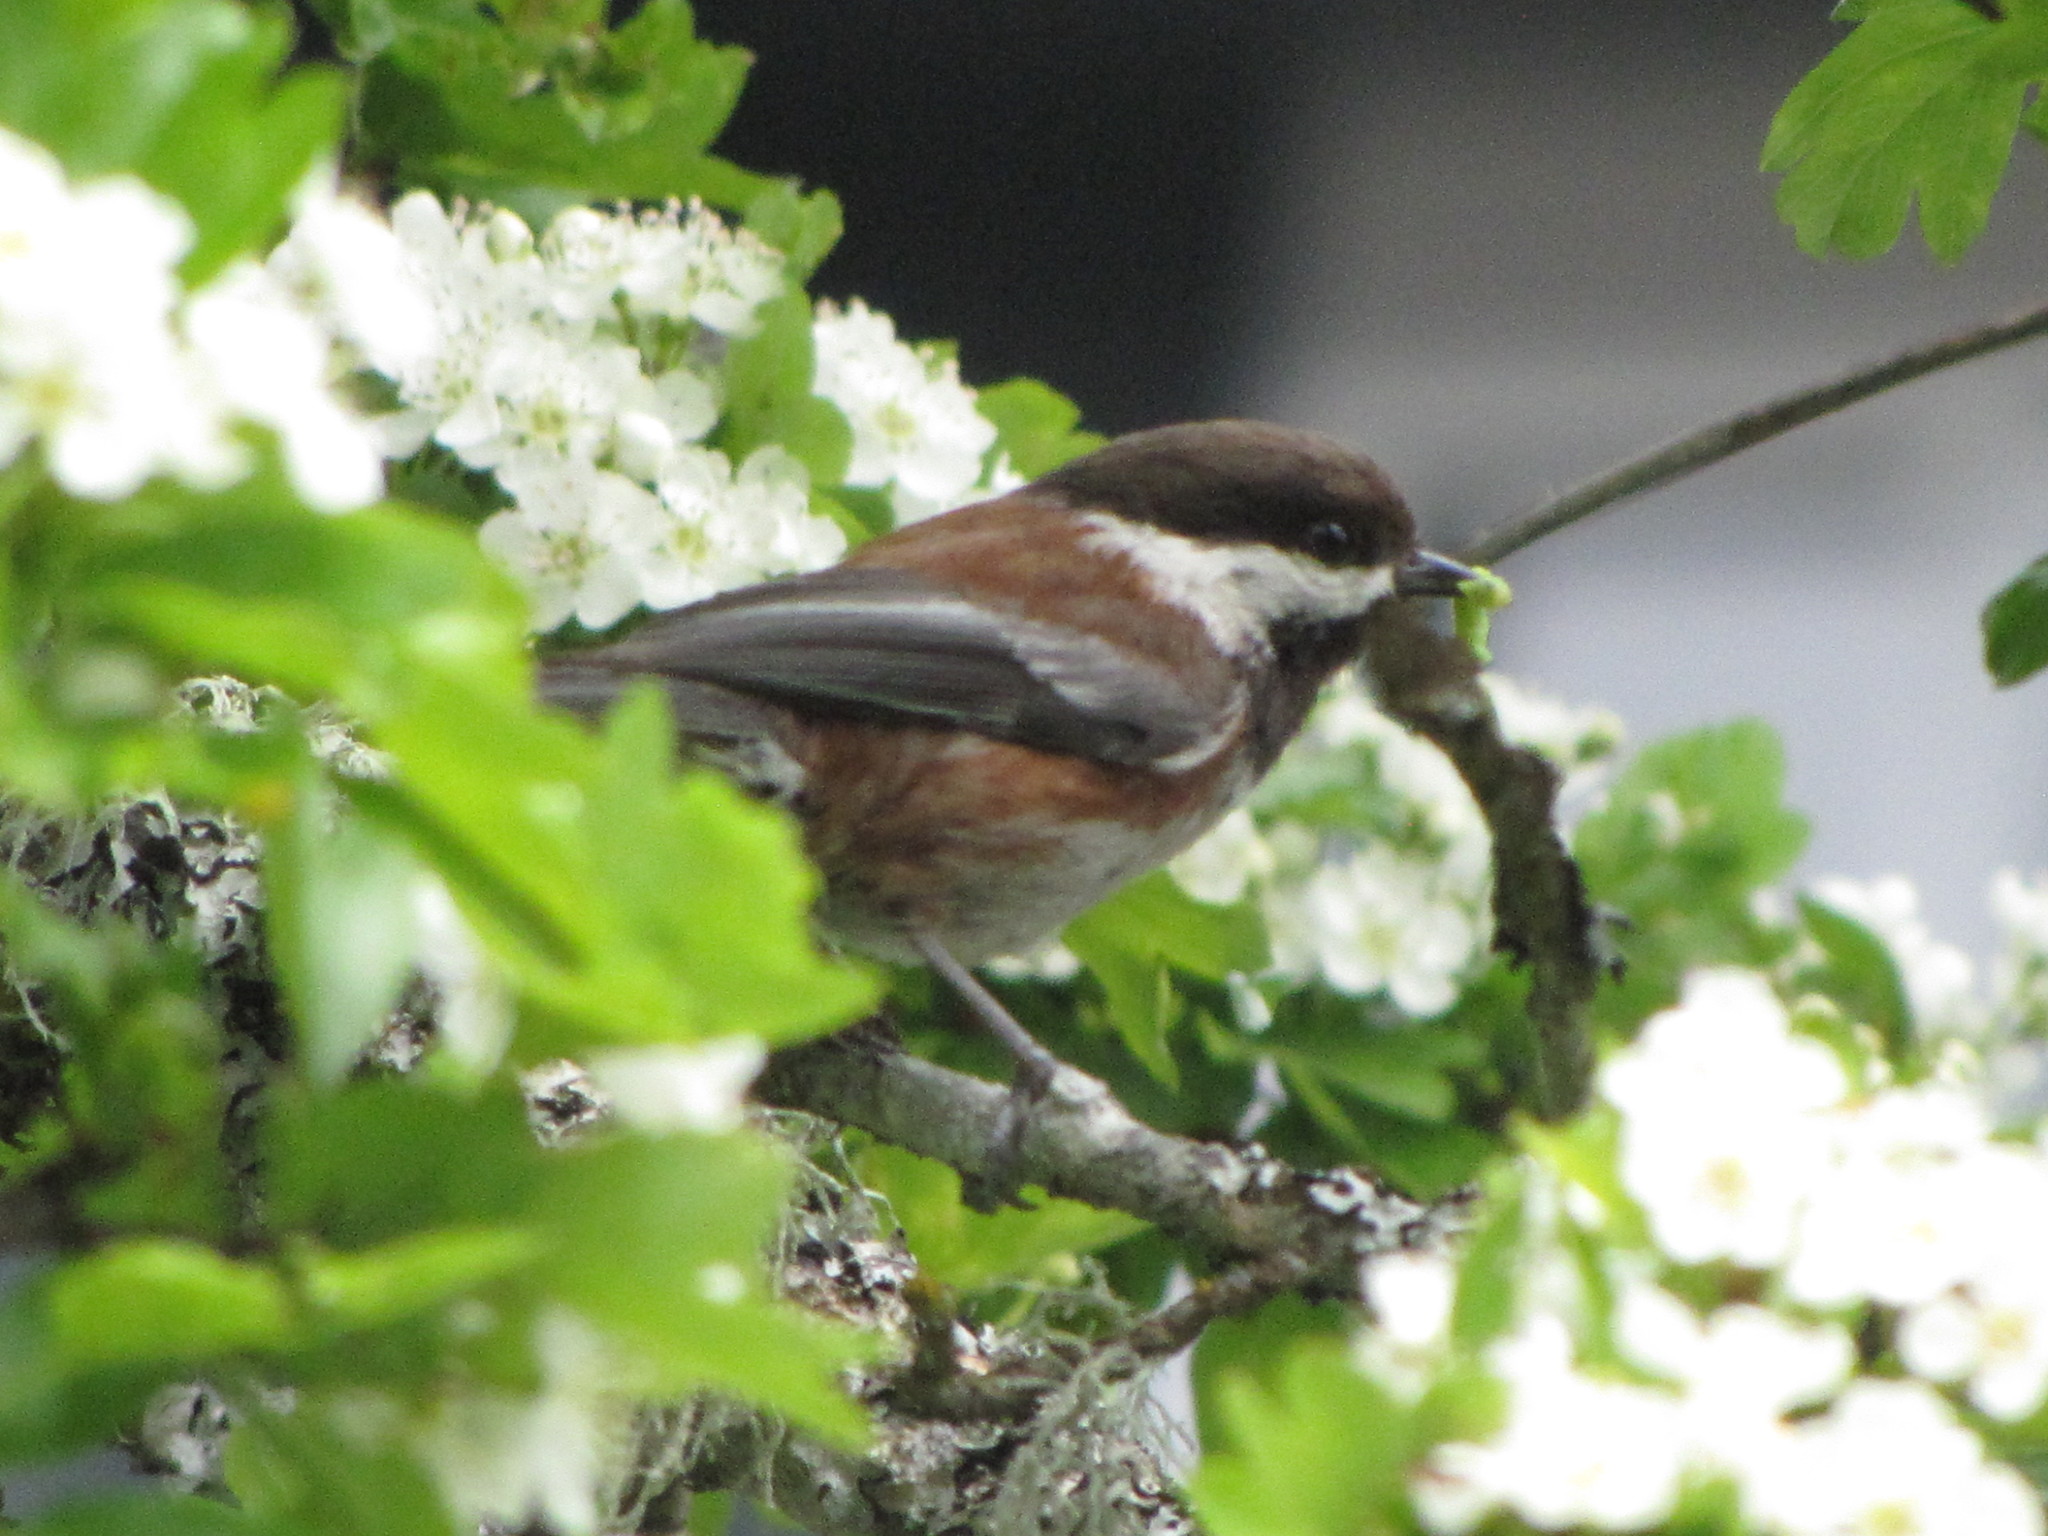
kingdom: Animalia
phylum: Chordata
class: Aves
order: Passeriformes
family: Paridae
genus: Poecile
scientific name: Poecile rufescens
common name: Chestnut-backed chickadee
